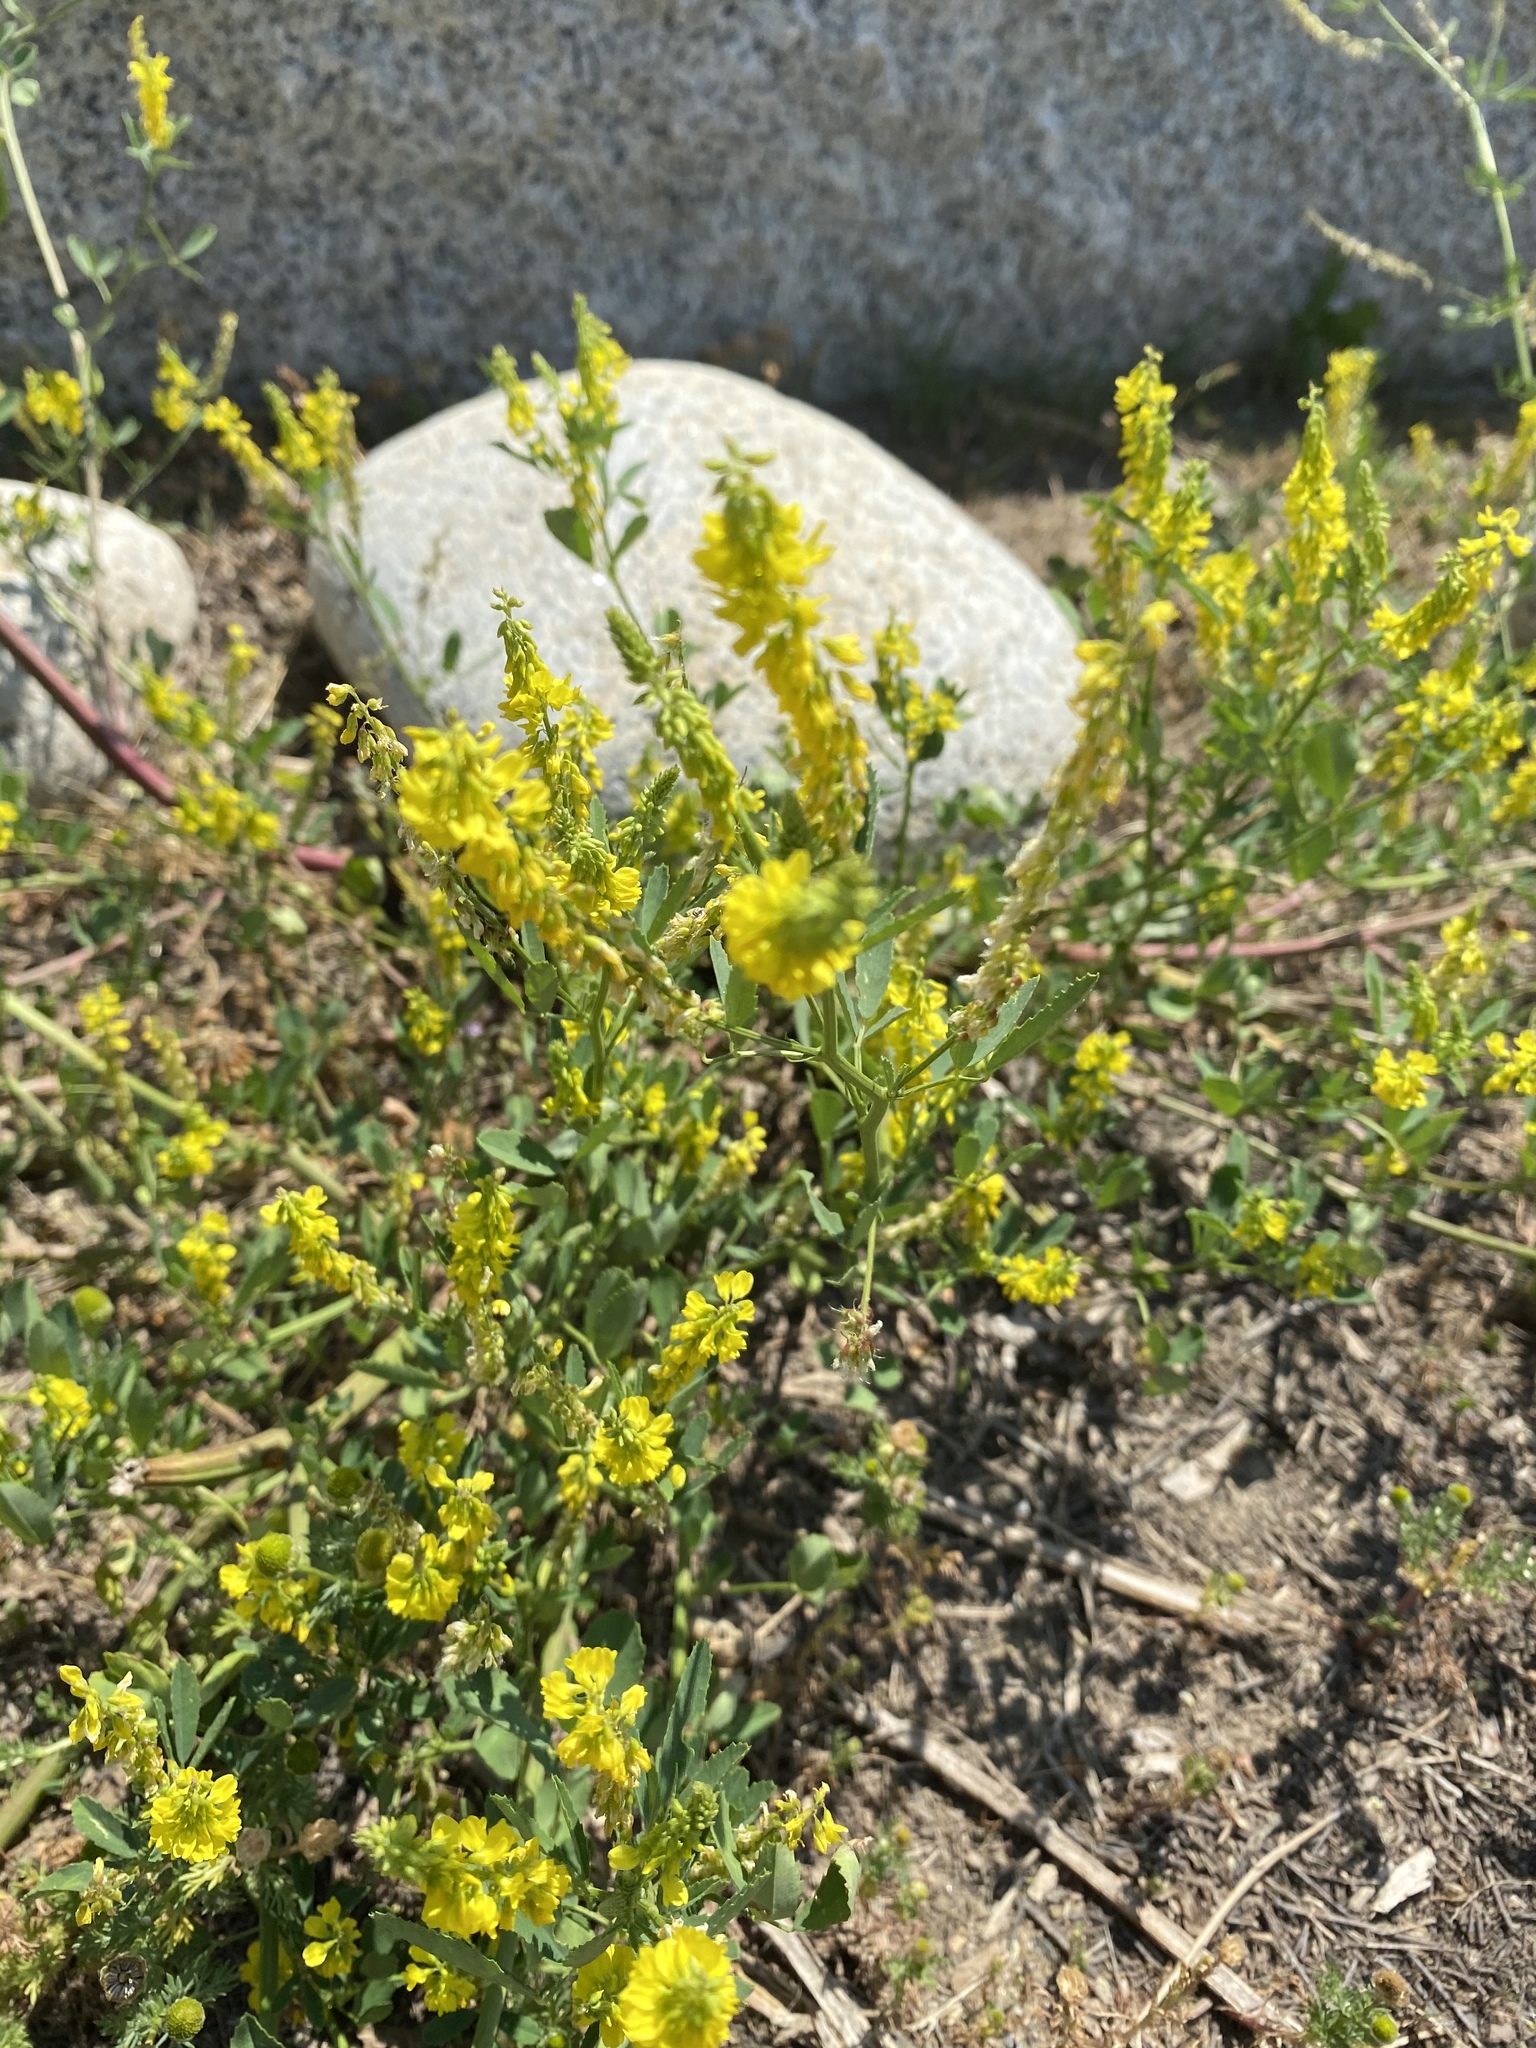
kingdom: Plantae
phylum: Tracheophyta
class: Magnoliopsida
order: Fabales
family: Fabaceae
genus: Melilotus
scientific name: Melilotus officinalis
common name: Sweetclover
